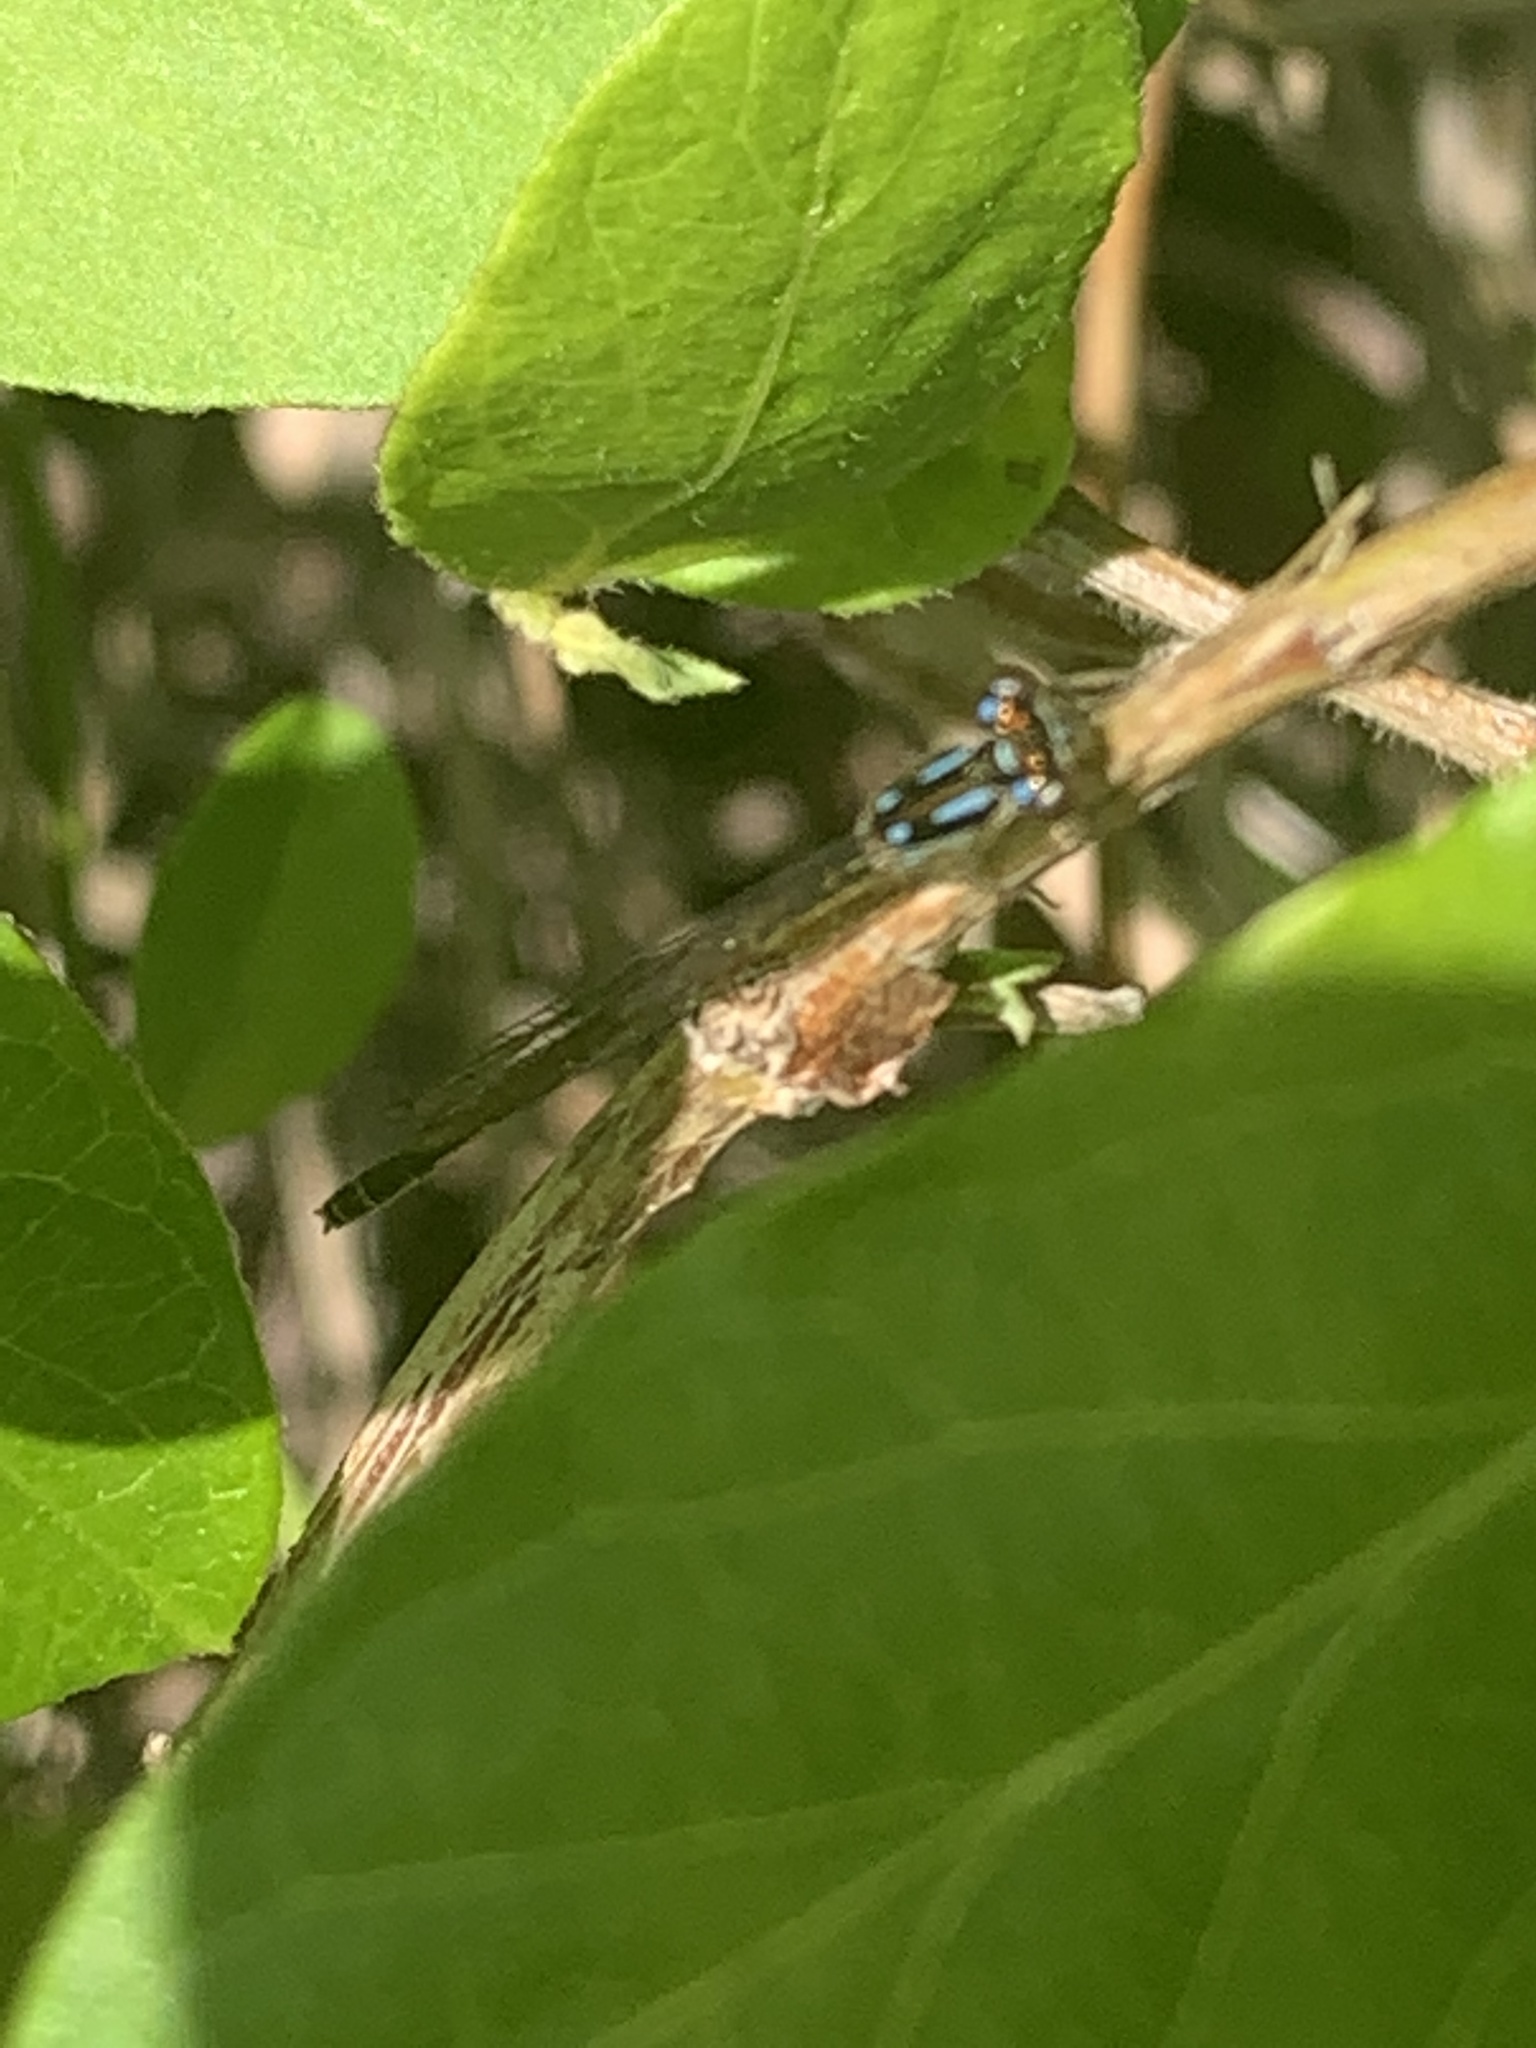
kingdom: Animalia
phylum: Arthropoda
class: Insecta
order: Odonata
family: Coenagrionidae
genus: Ischnura
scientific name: Ischnura posita
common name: Fragile forktail
